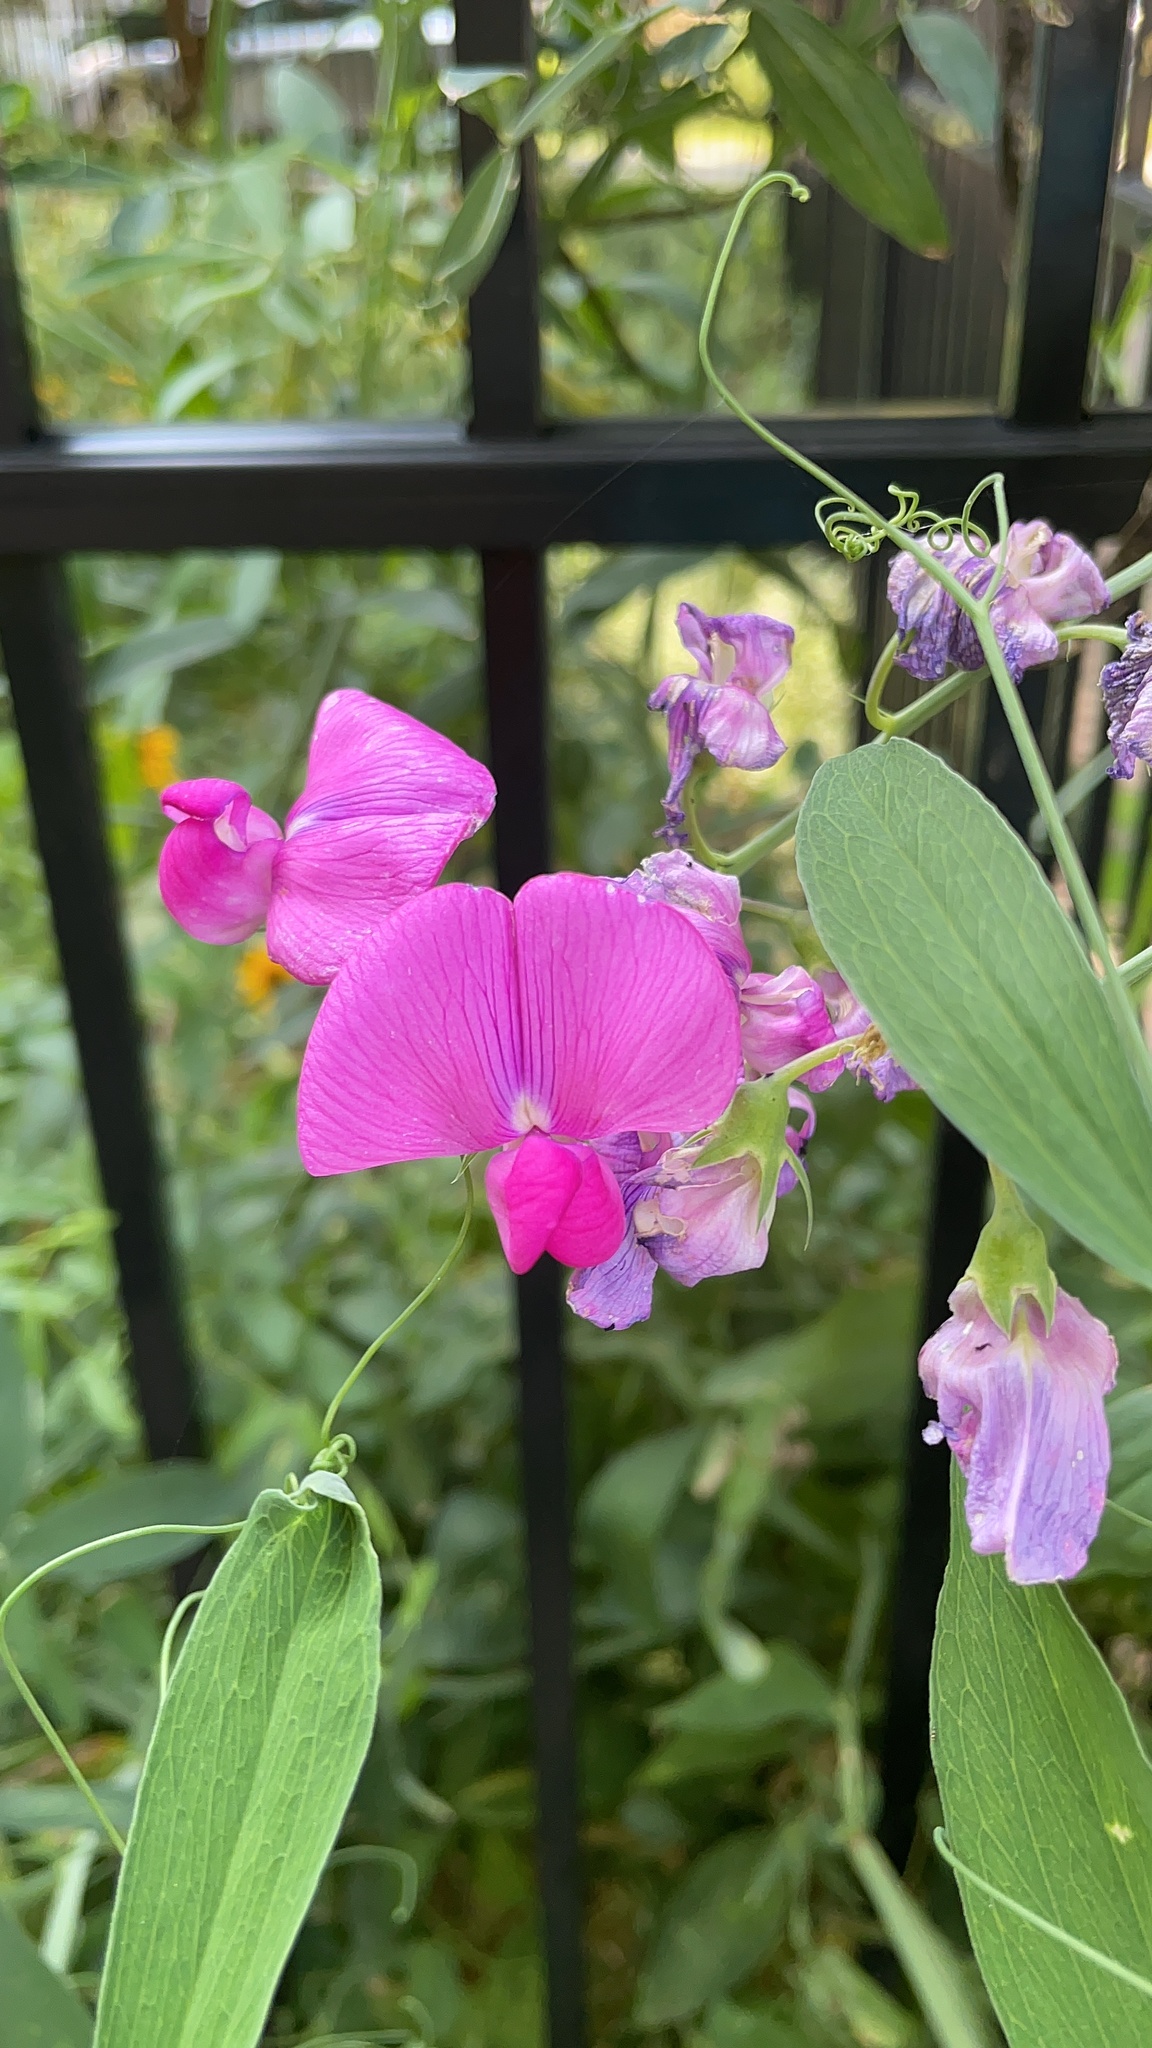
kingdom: Plantae
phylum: Tracheophyta
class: Magnoliopsida
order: Fabales
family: Fabaceae
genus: Lathyrus
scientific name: Lathyrus latifolius
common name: Perennial pea
